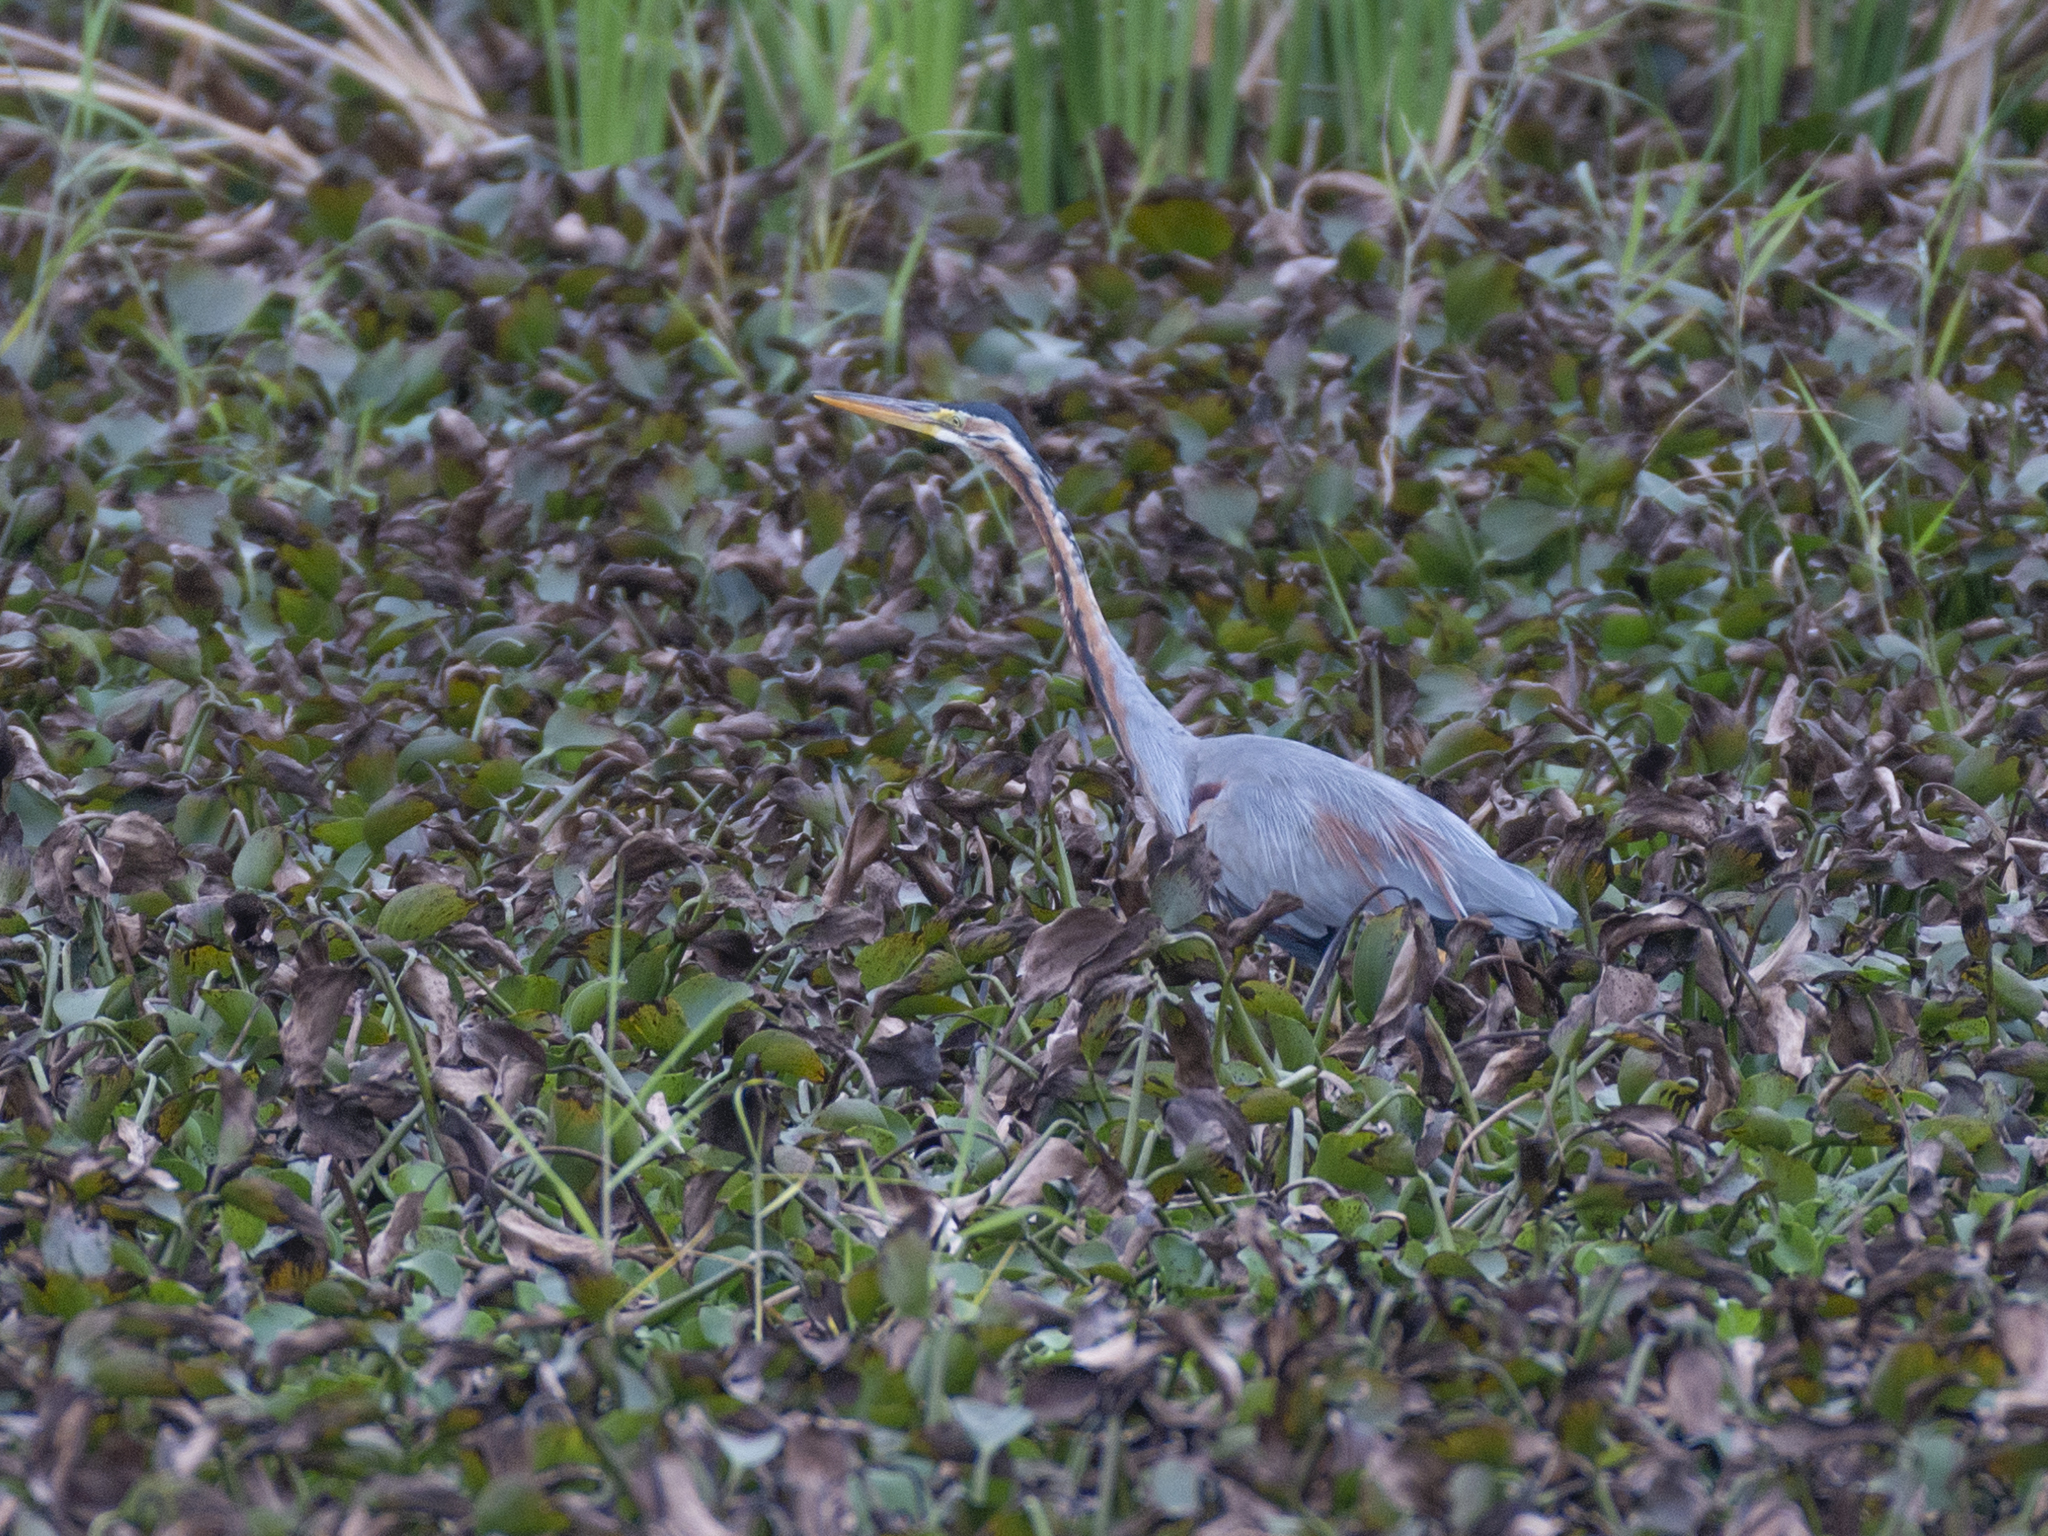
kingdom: Animalia
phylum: Chordata
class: Aves
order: Pelecaniformes
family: Ardeidae
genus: Ardea
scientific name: Ardea purpurea
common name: Purple heron
